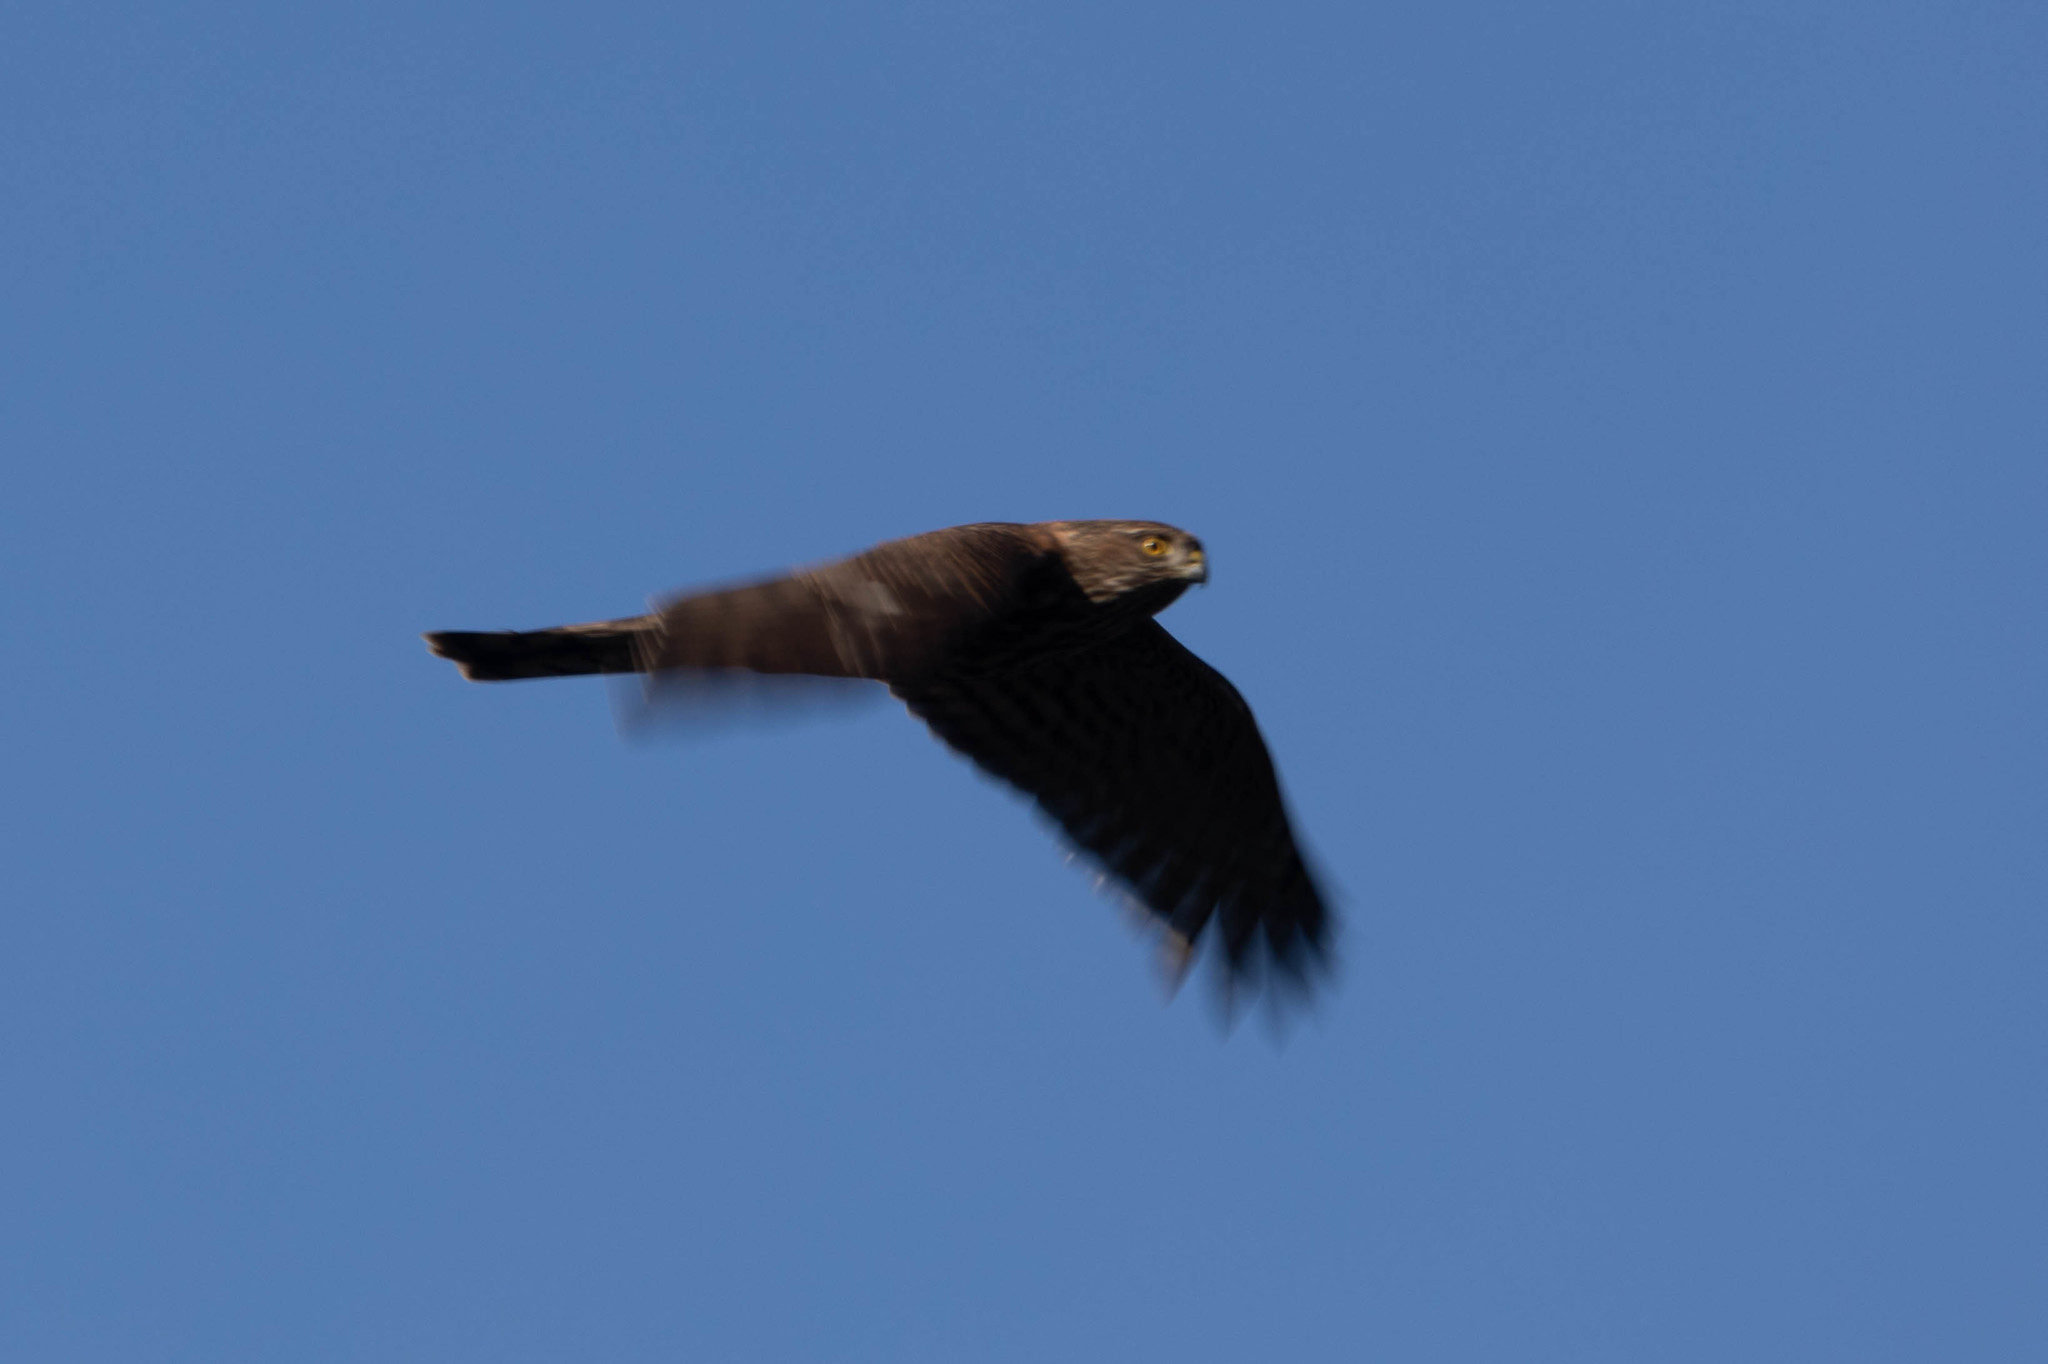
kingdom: Animalia
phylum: Chordata
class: Aves
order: Accipitriformes
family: Accipitridae
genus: Accipiter
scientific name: Accipiter striatus
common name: Sharp-shinned hawk
